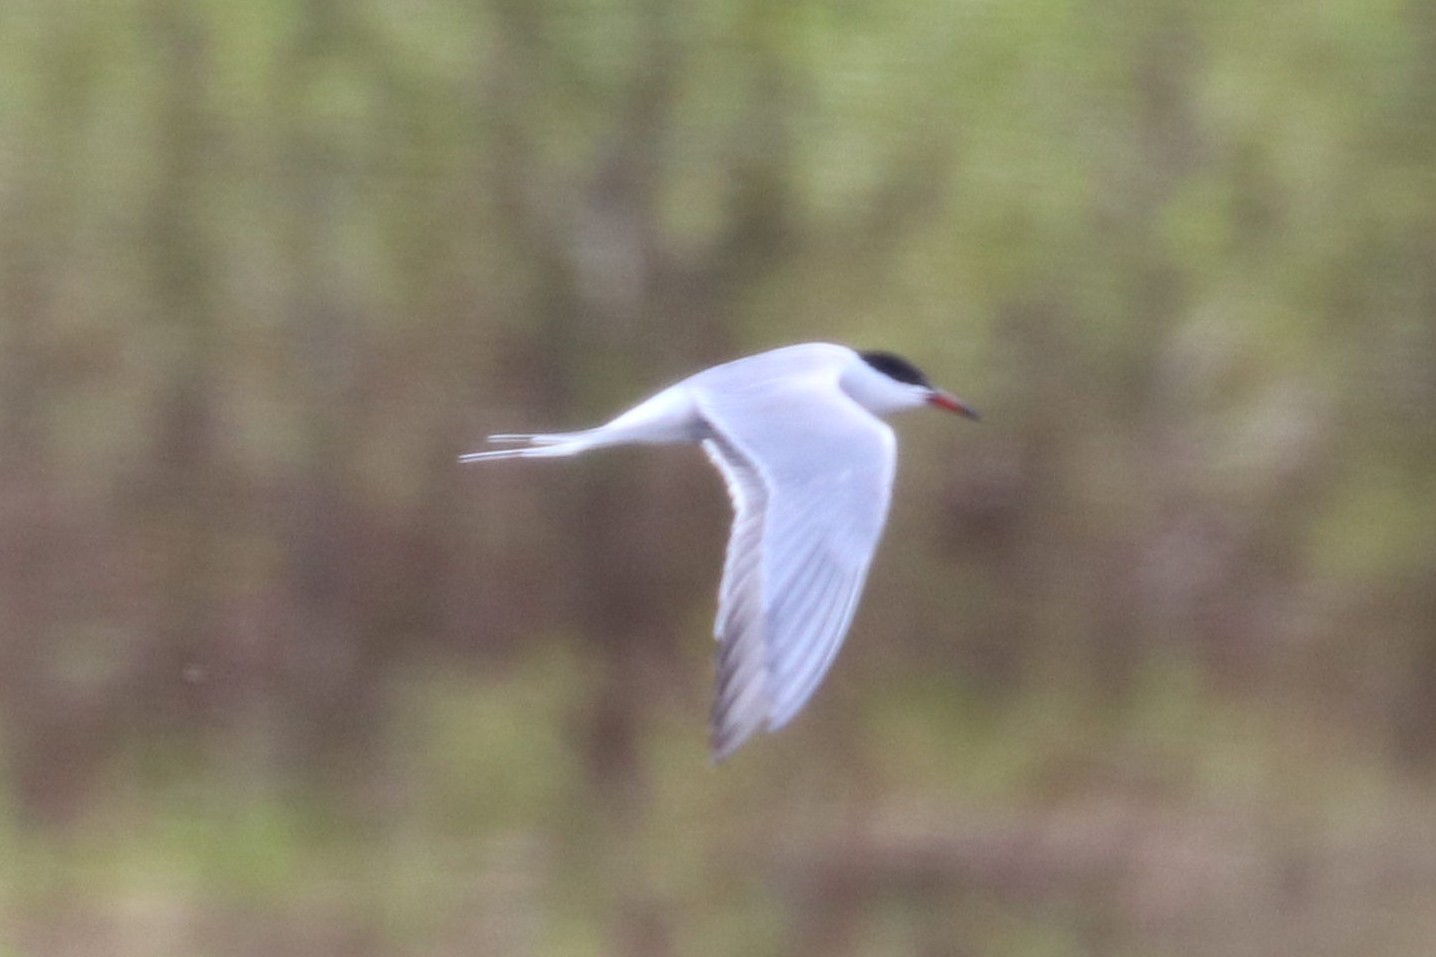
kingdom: Animalia
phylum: Chordata
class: Aves
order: Charadriiformes
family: Laridae
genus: Sterna
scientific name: Sterna hirundo
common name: Common tern
